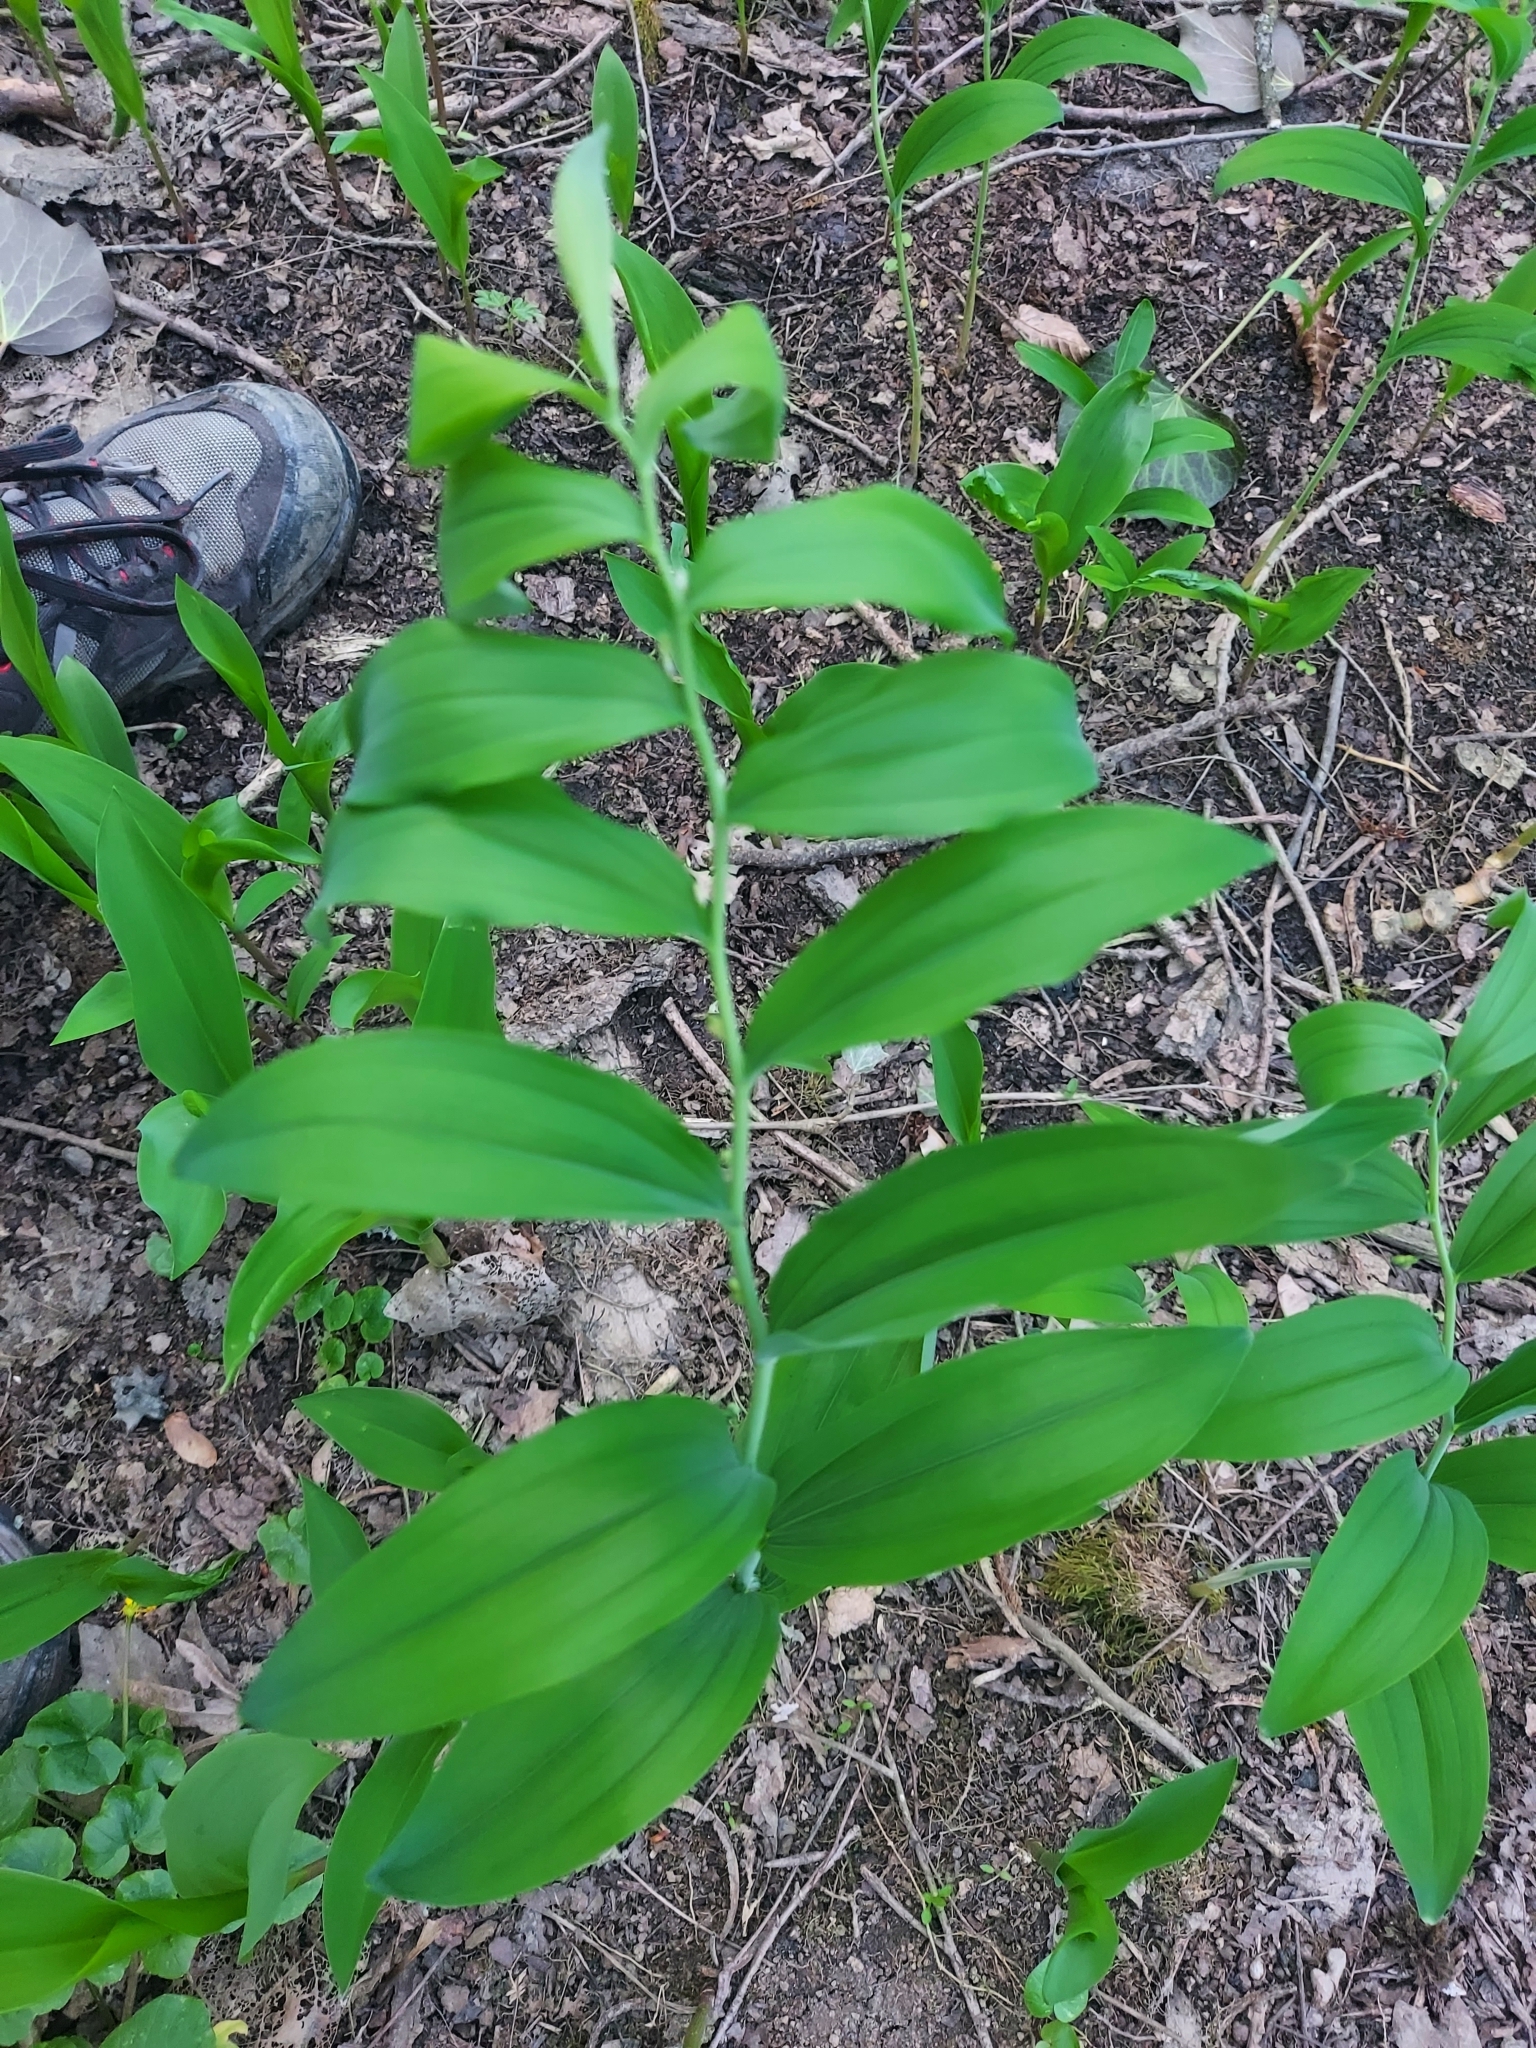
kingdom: Plantae
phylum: Tracheophyta
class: Liliopsida
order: Asparagales
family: Asparagaceae
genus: Polygonatum
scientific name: Polygonatum multiflorum
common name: Solomon's-seal
